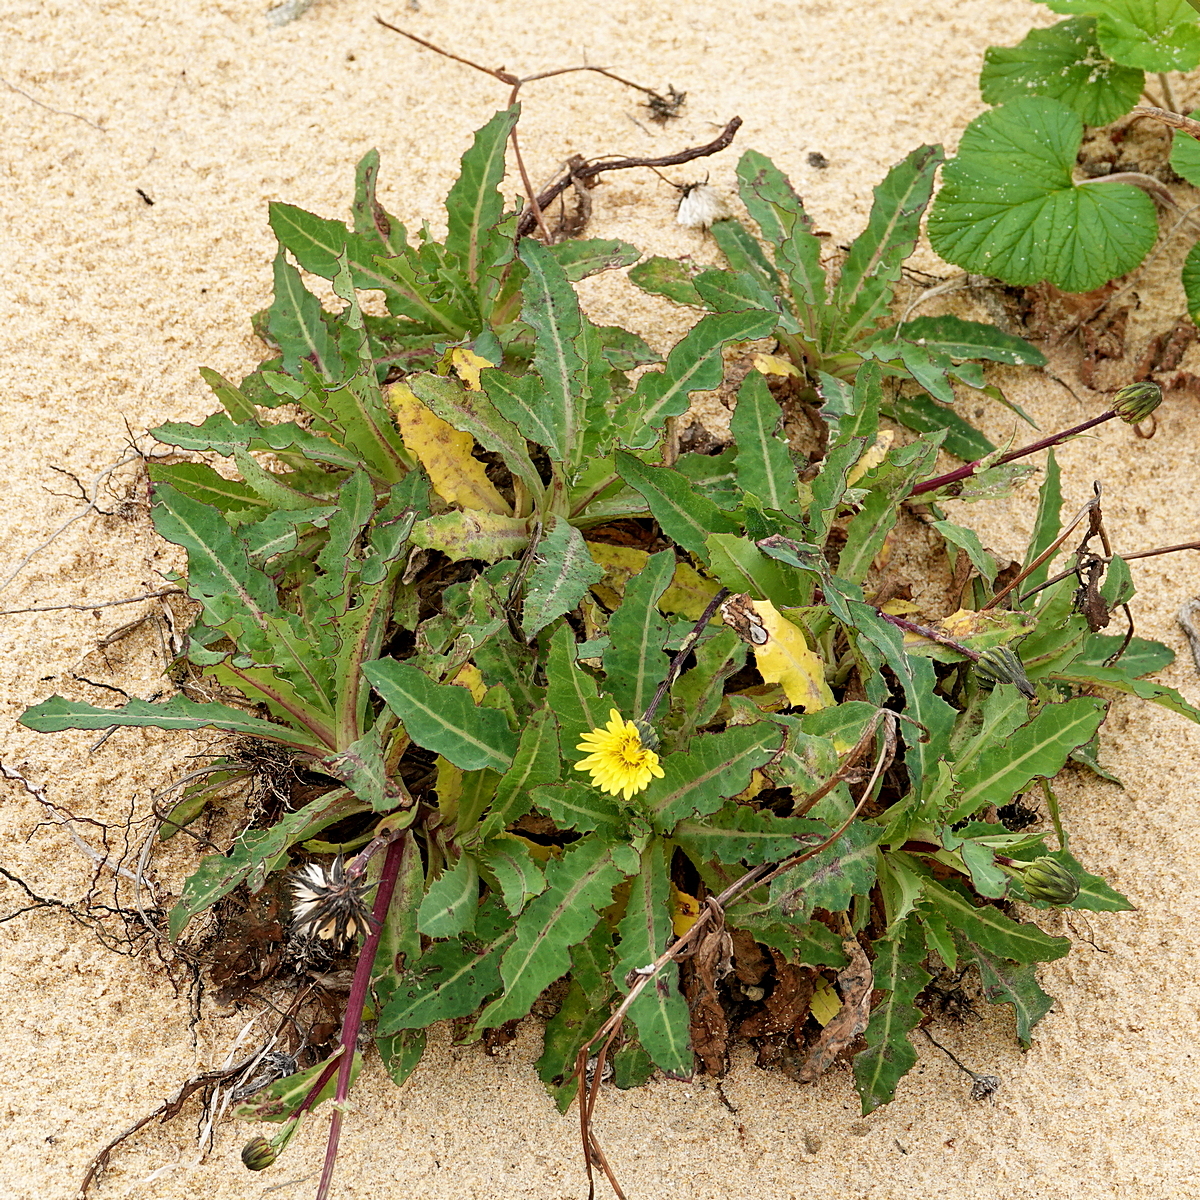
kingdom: Plantae
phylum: Tracheophyta
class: Magnoliopsida
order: Asterales
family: Asteraceae
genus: Sonchus
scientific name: Sonchus megalocarpus
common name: Dune thistle
